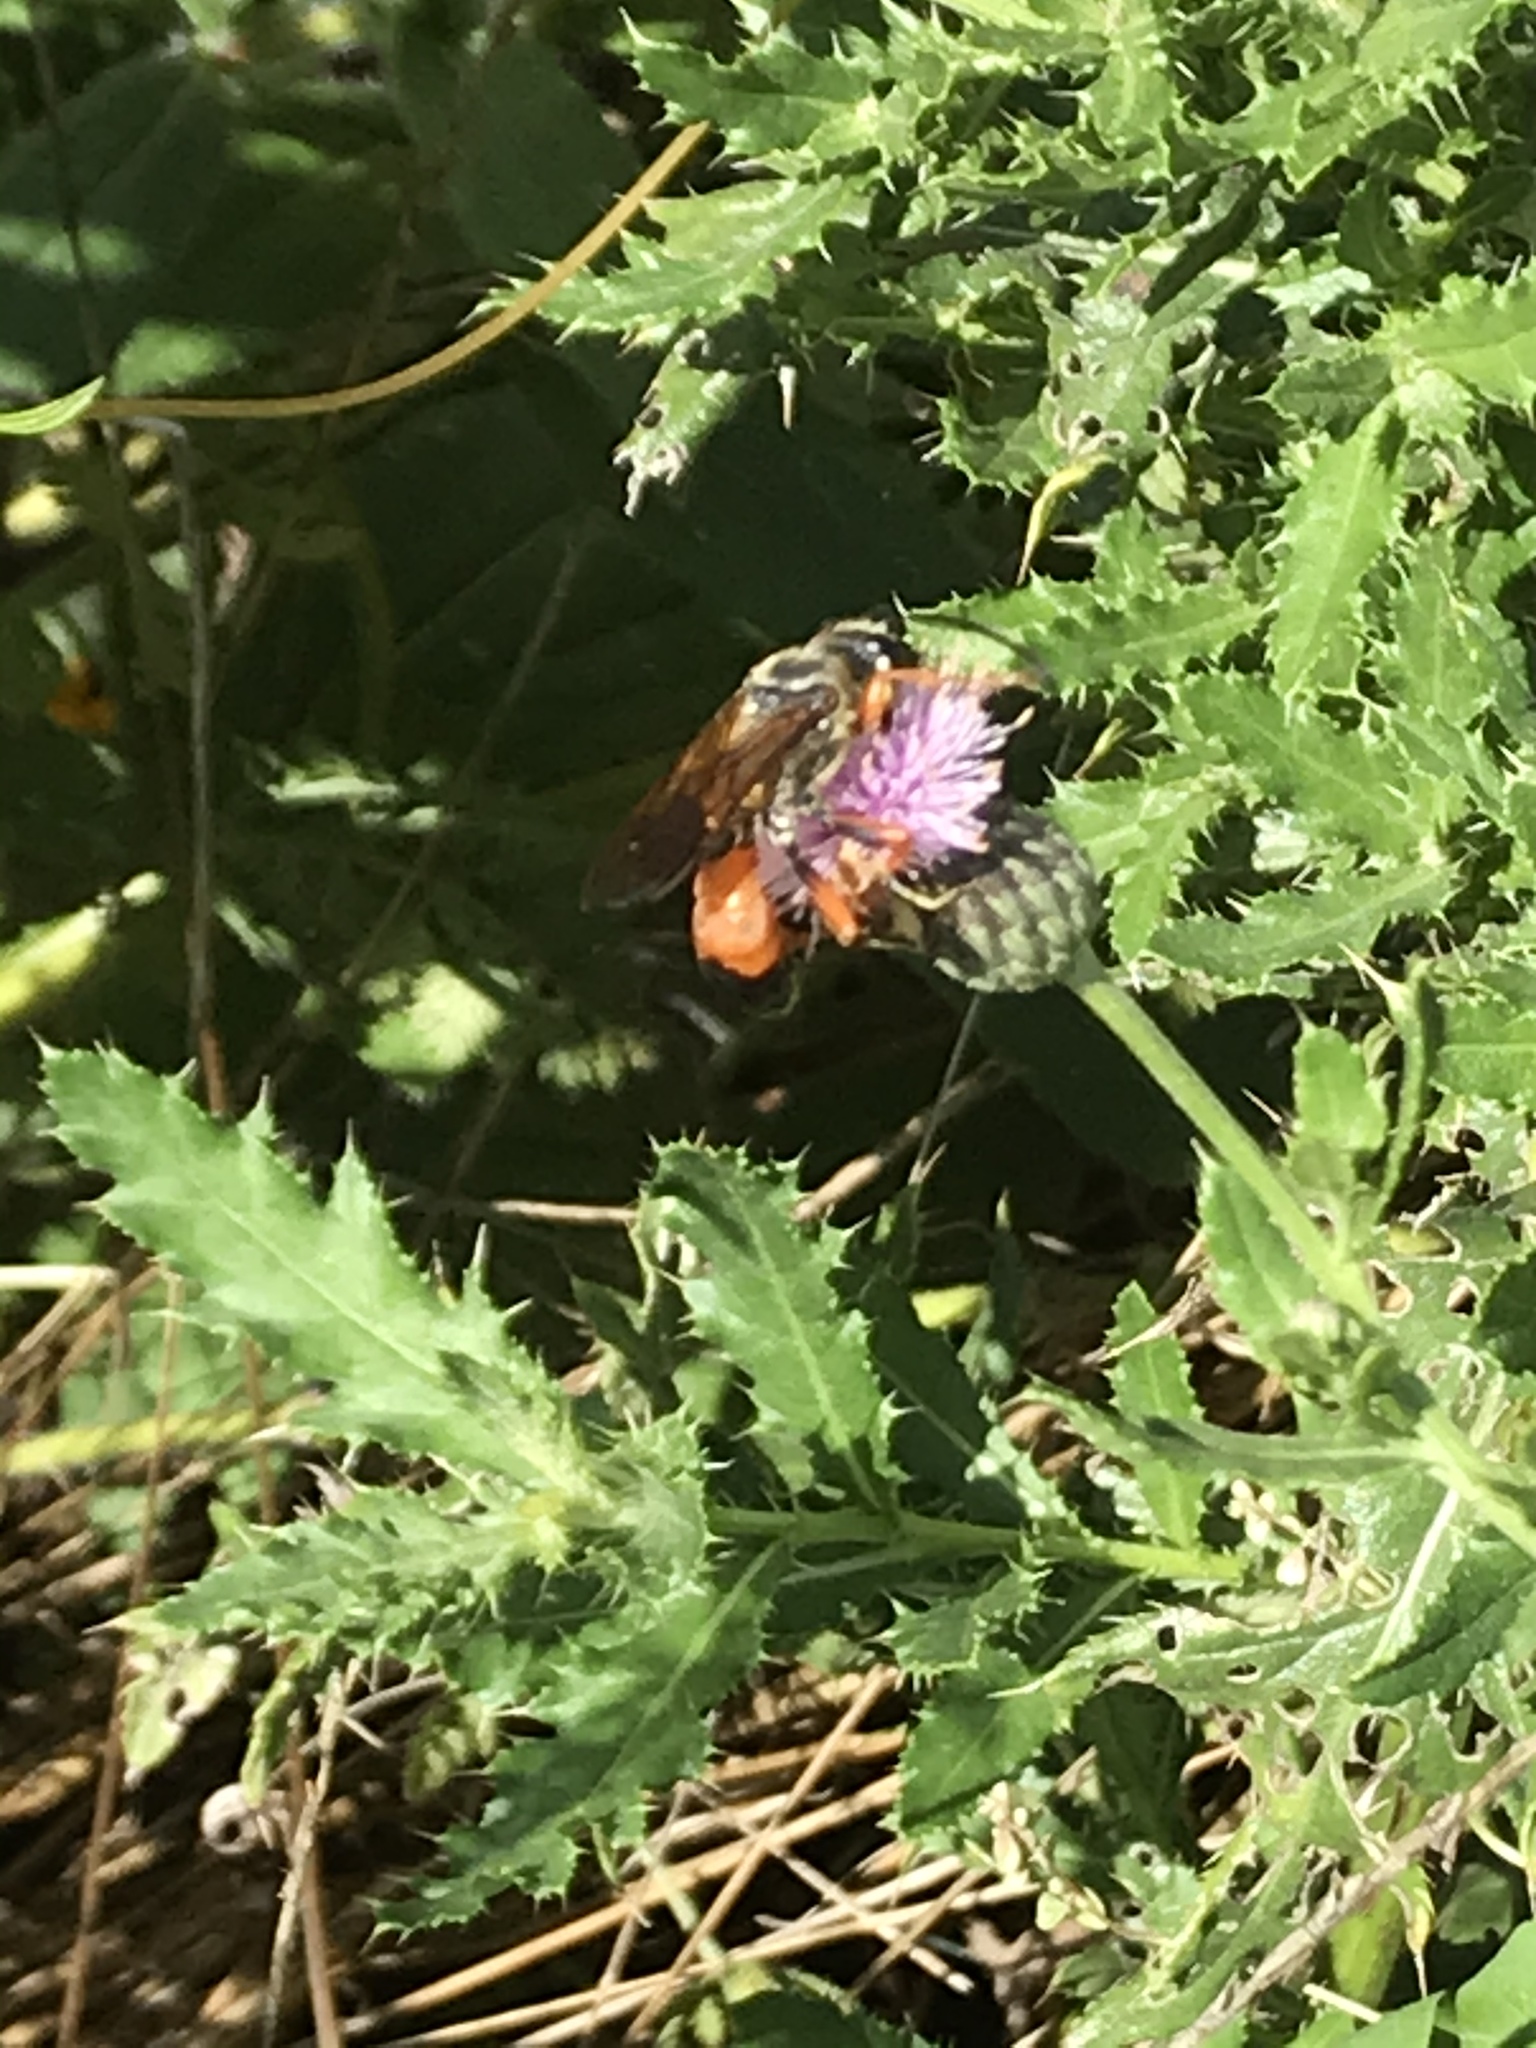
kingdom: Animalia
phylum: Arthropoda
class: Insecta
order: Hymenoptera
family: Sphecidae
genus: Sphex
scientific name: Sphex ichneumoneus
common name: Great golden digger wasp
